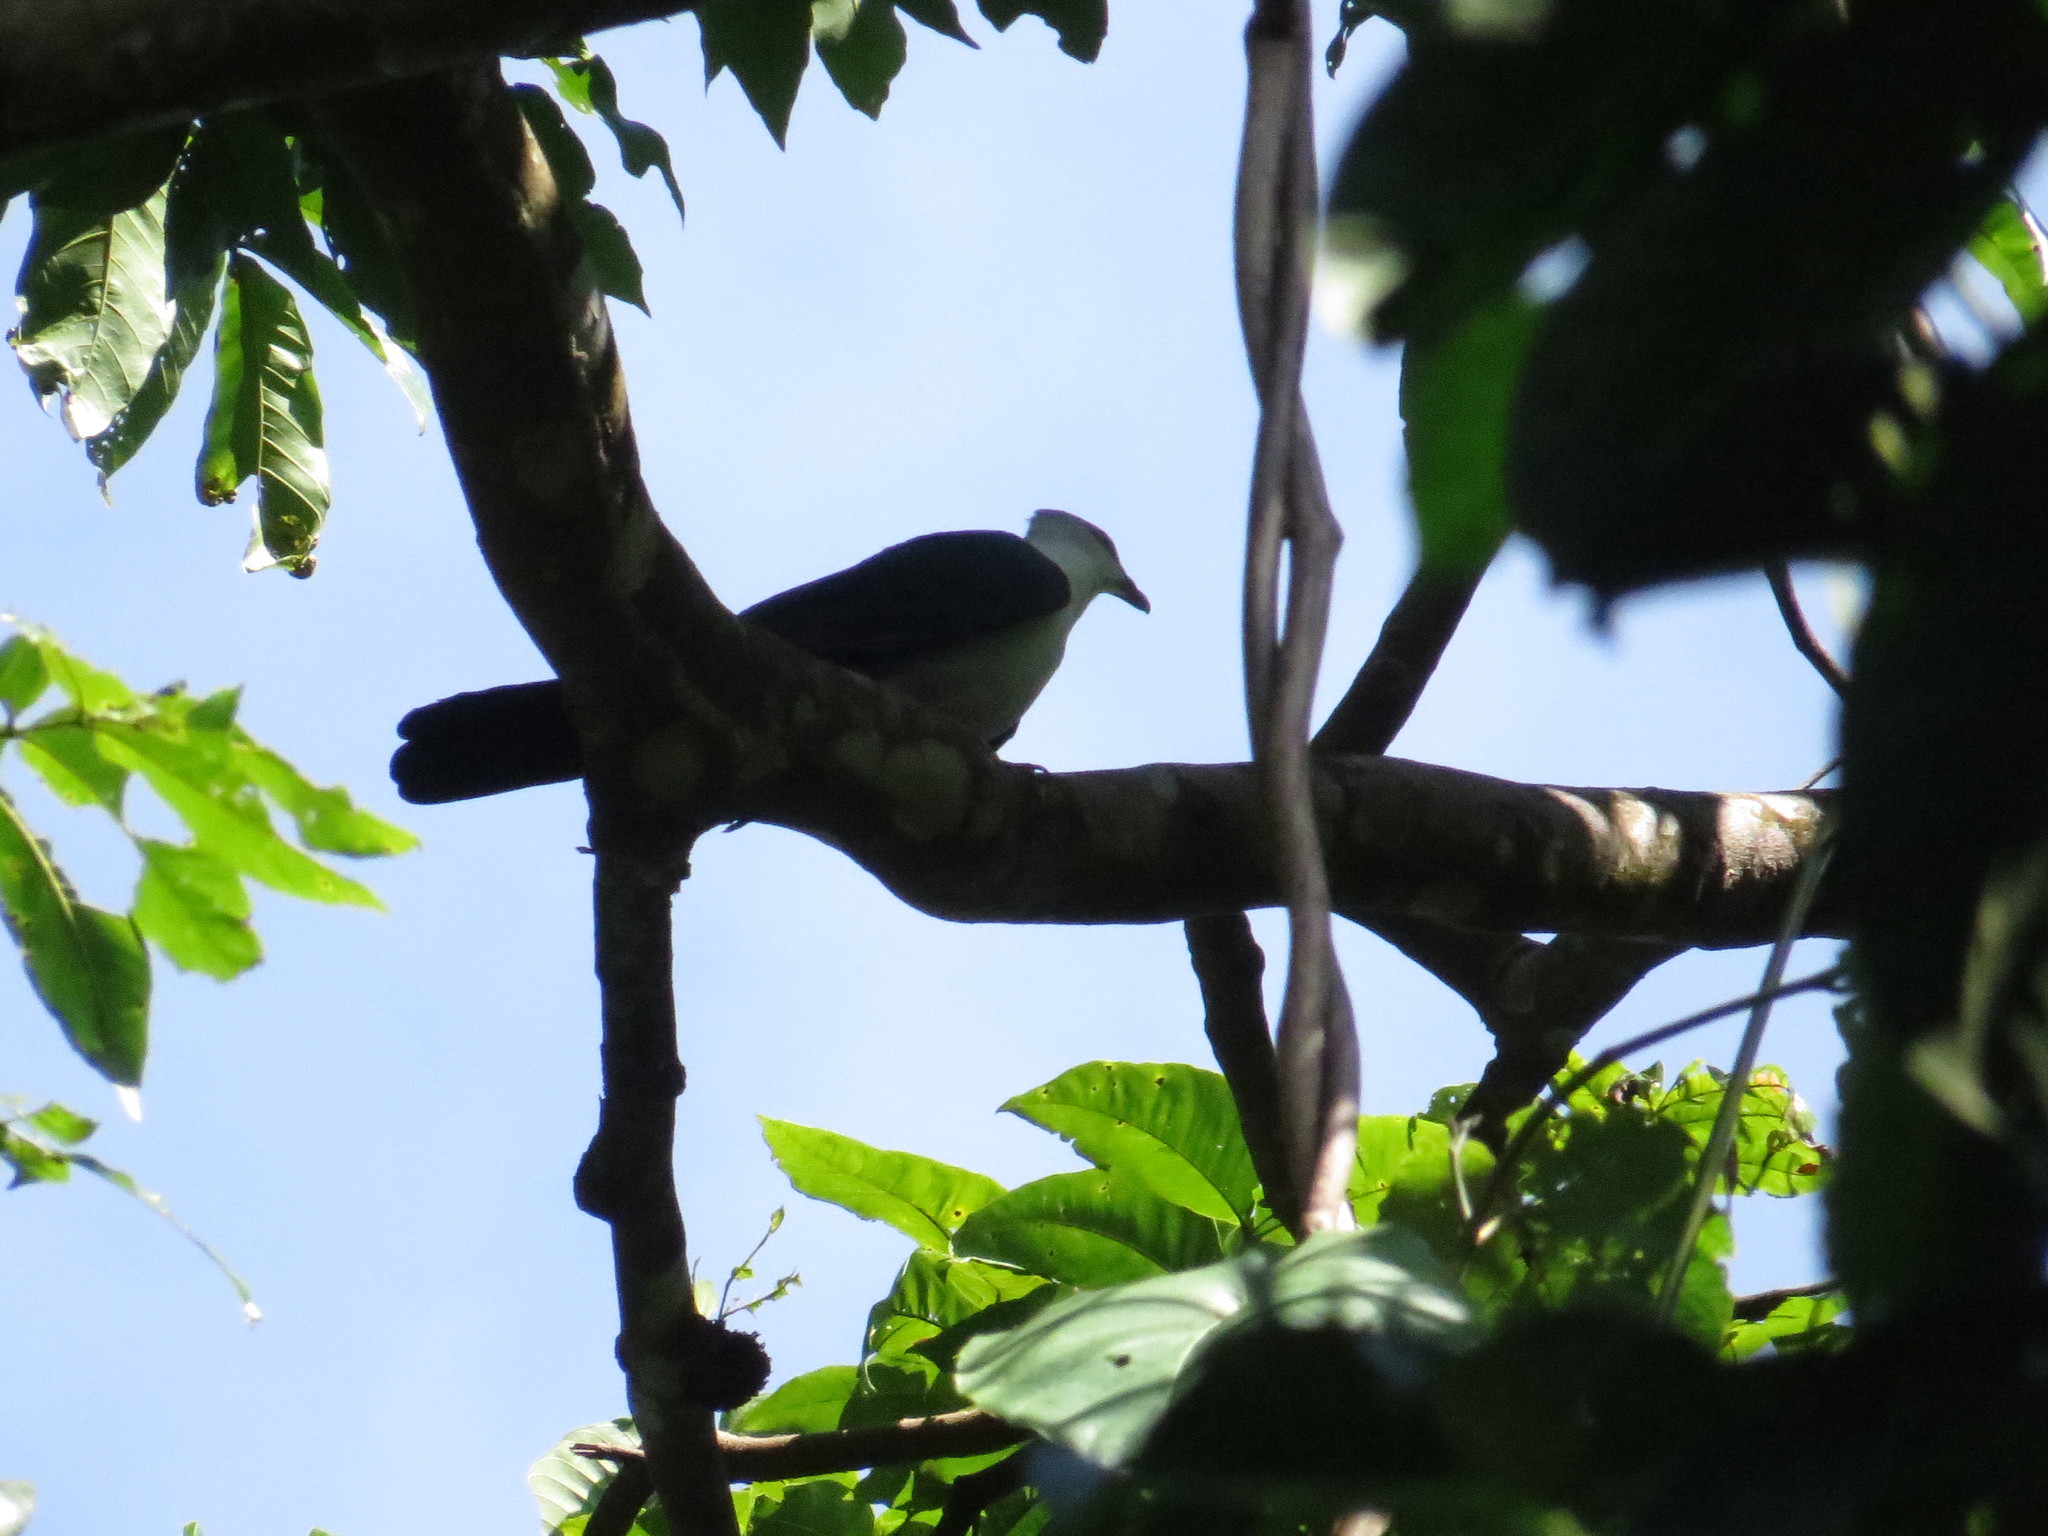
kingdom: Animalia
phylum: Chordata
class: Aves
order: Columbiformes
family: Columbidae
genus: Reinwardtoena
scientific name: Reinwardtoena browni
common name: Pied cuckoo-dove
